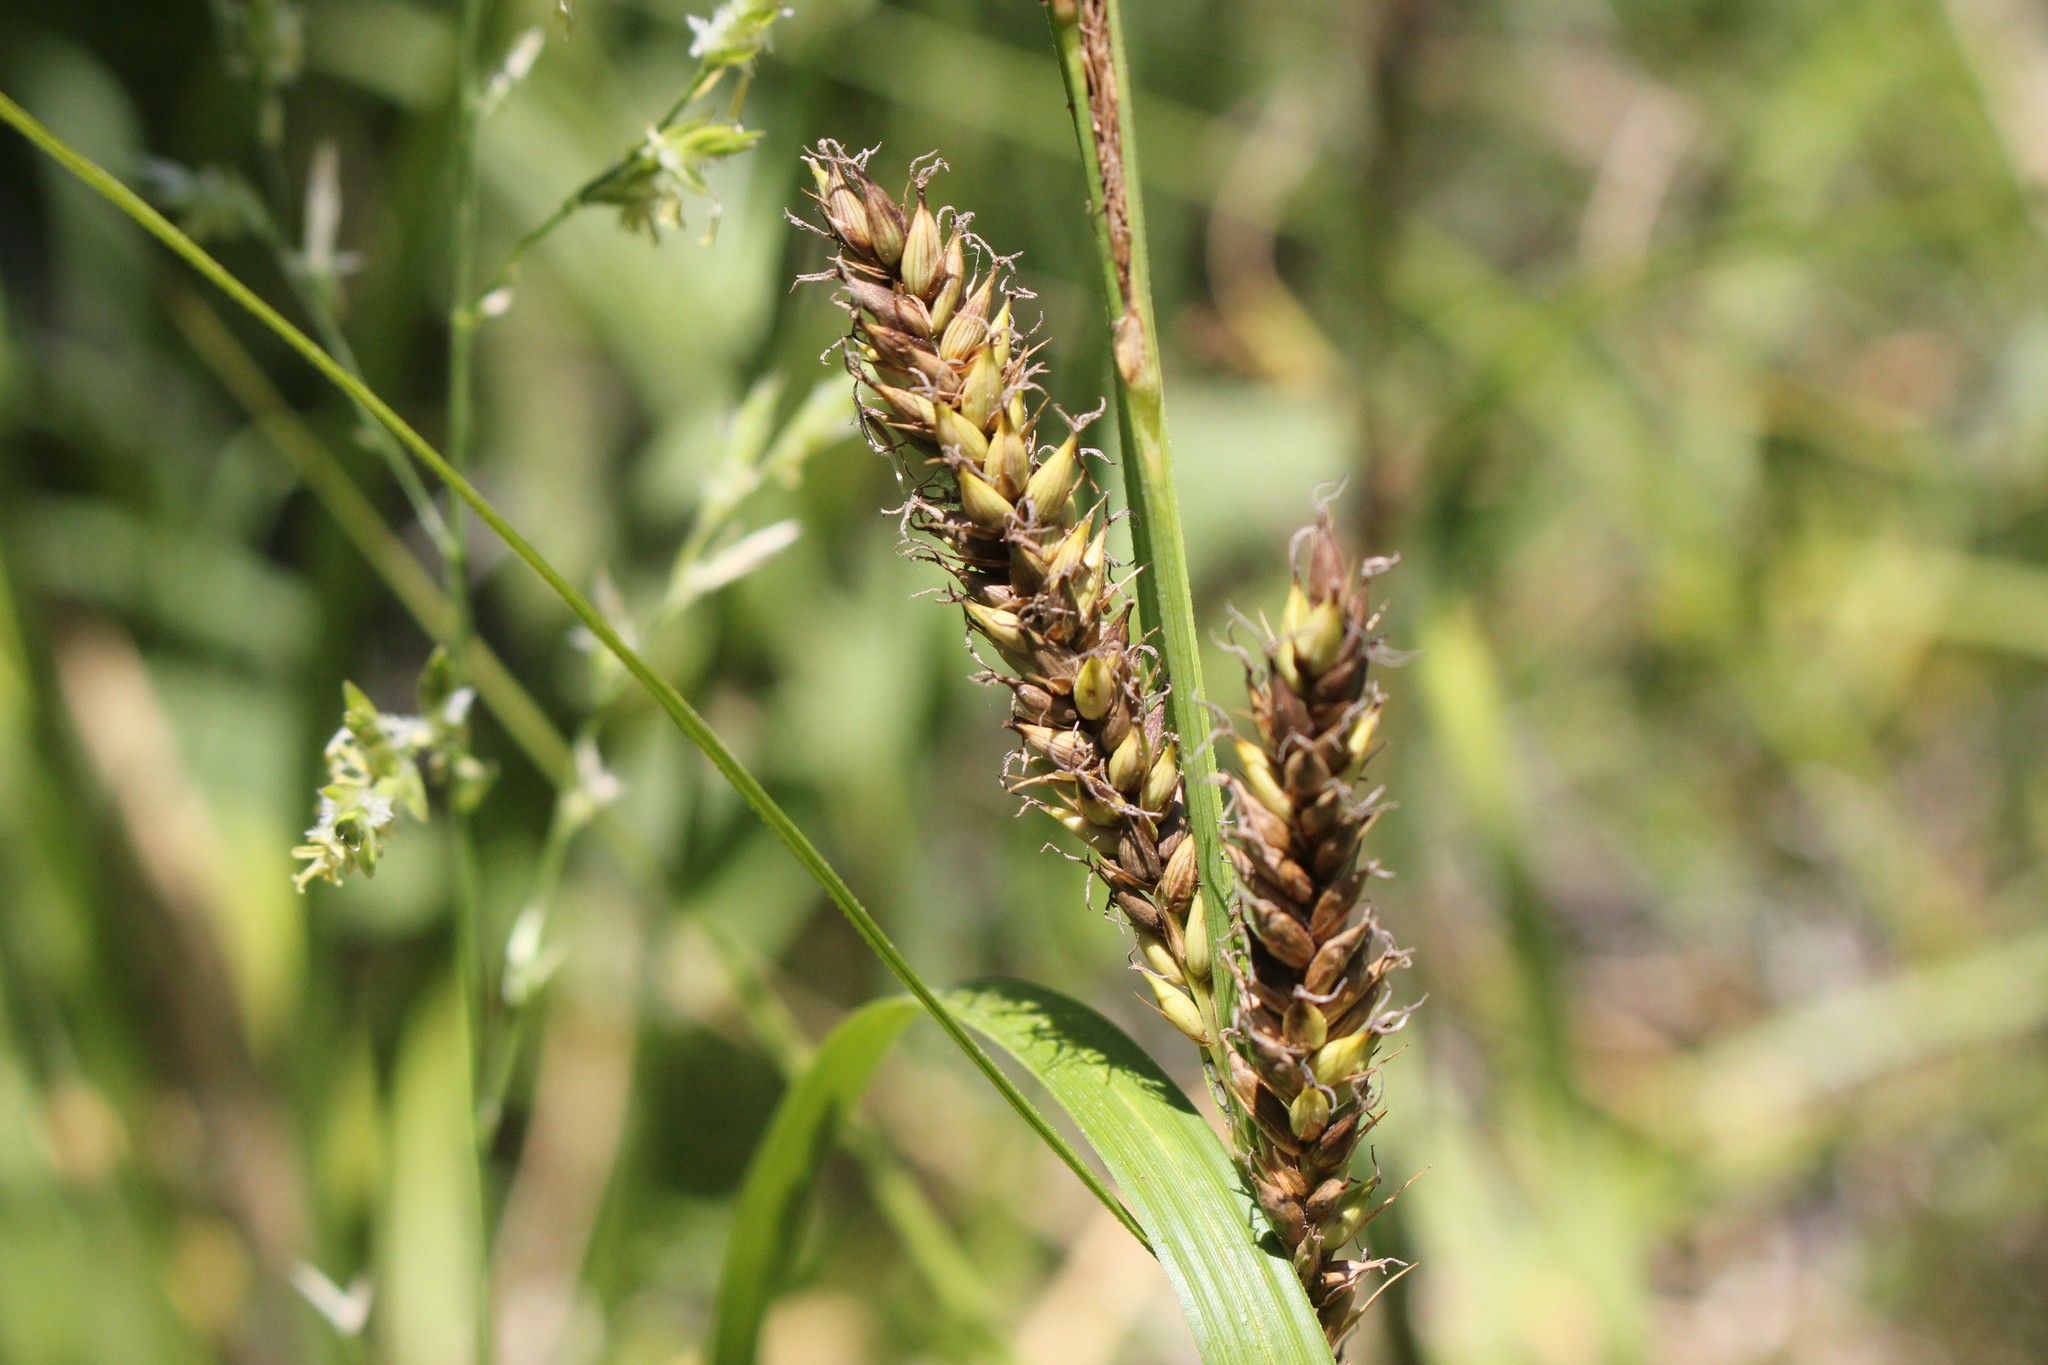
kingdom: Plantae
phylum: Tracheophyta
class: Liliopsida
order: Poales
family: Cyperaceae
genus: Carex
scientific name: Carex hyalinolepis
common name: Shoreline sedge
